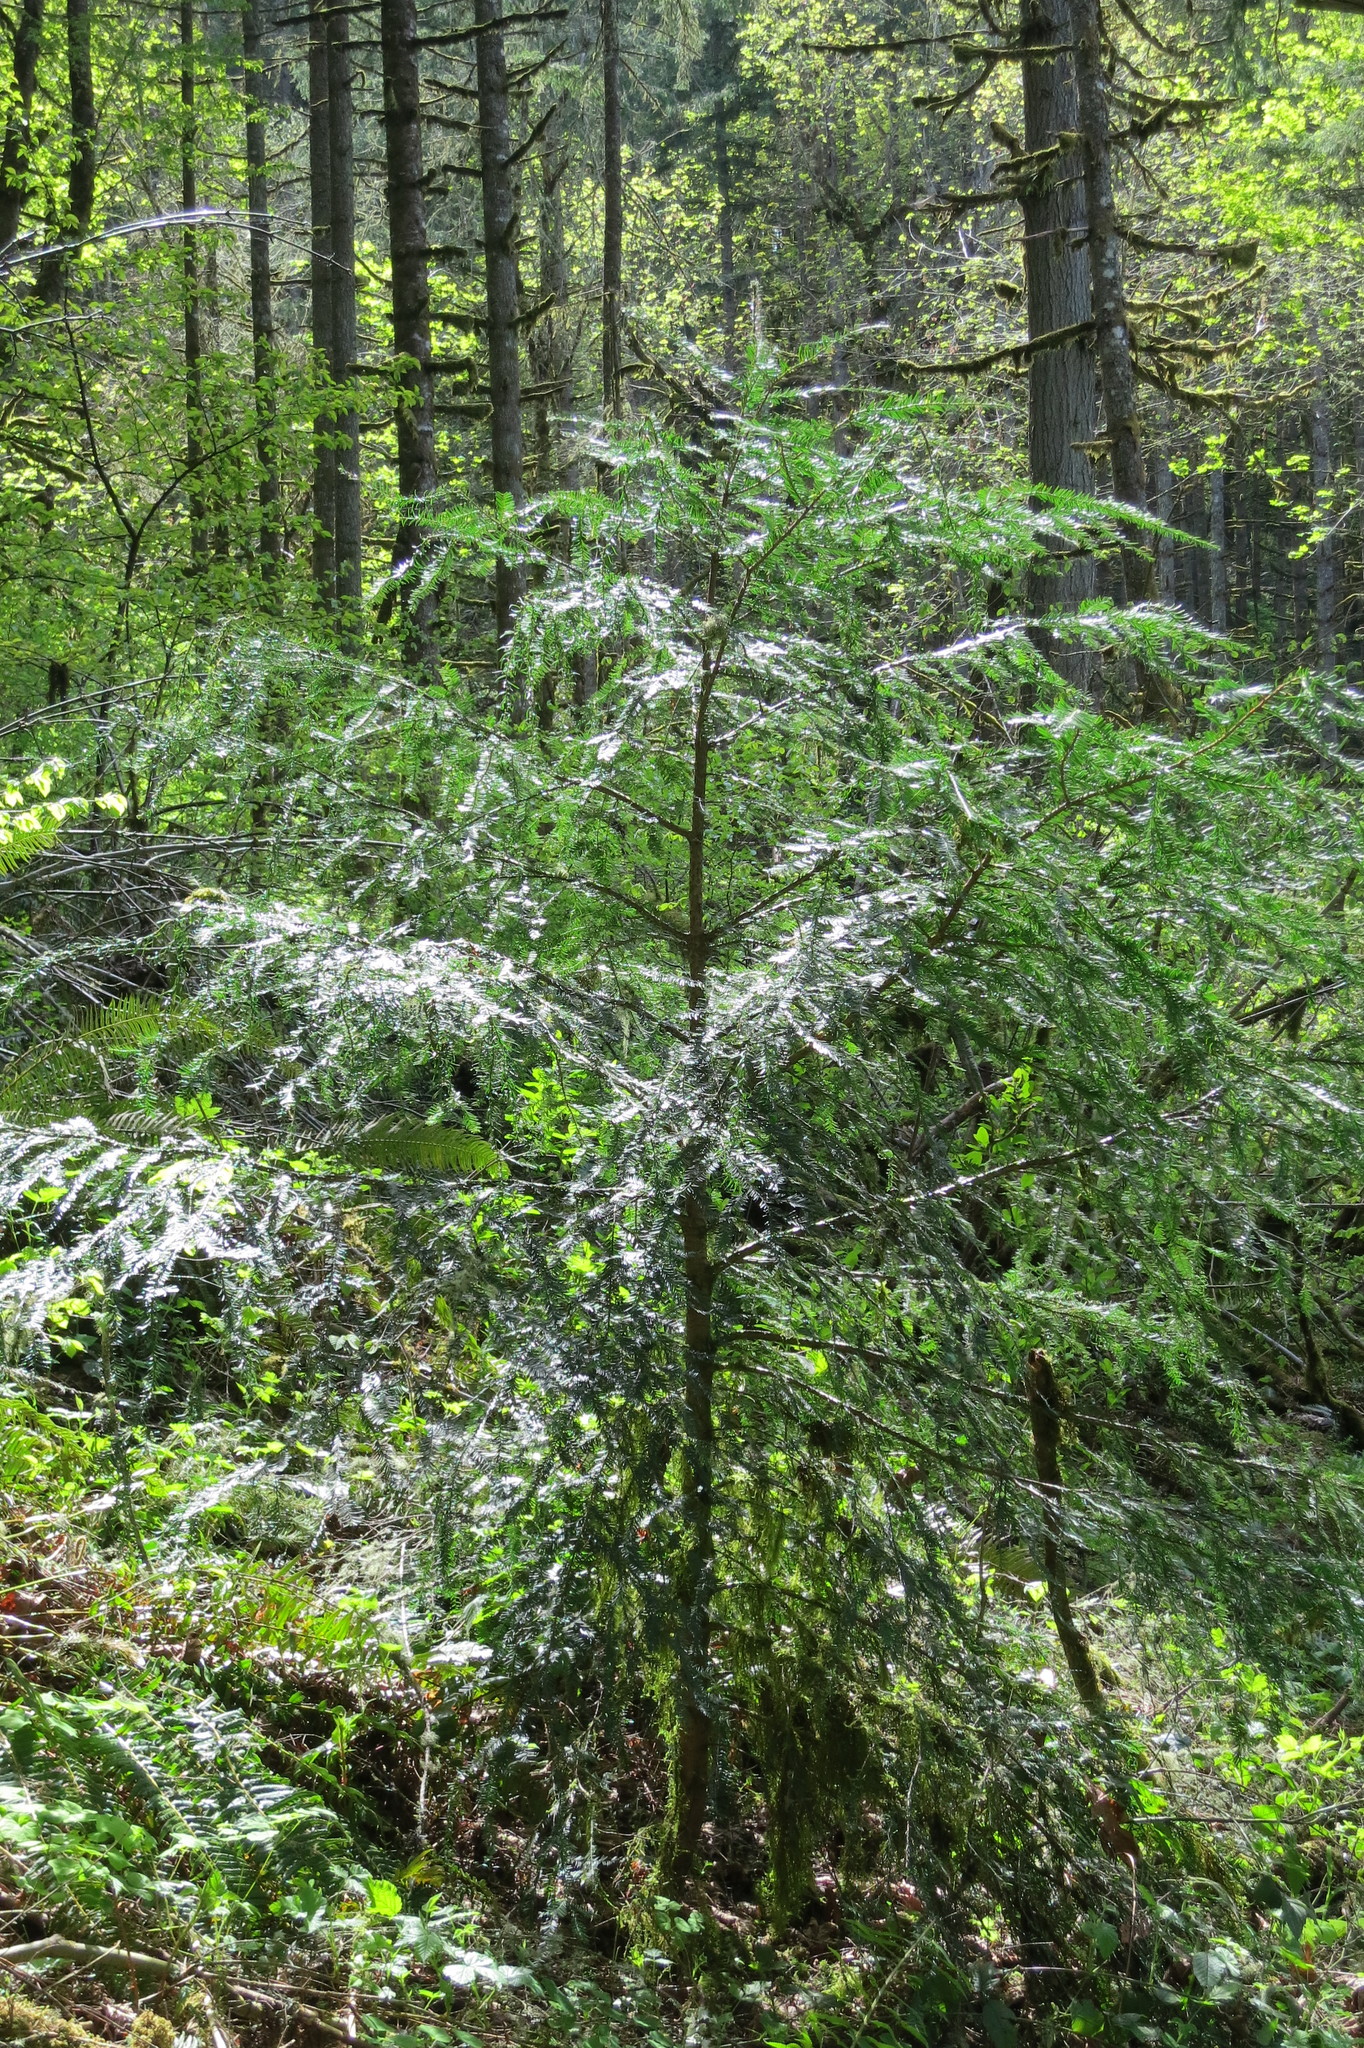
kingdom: Plantae
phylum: Tracheophyta
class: Pinopsida
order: Pinales
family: Taxaceae
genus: Taxus
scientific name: Taxus brevifolia
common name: Pacific yew
